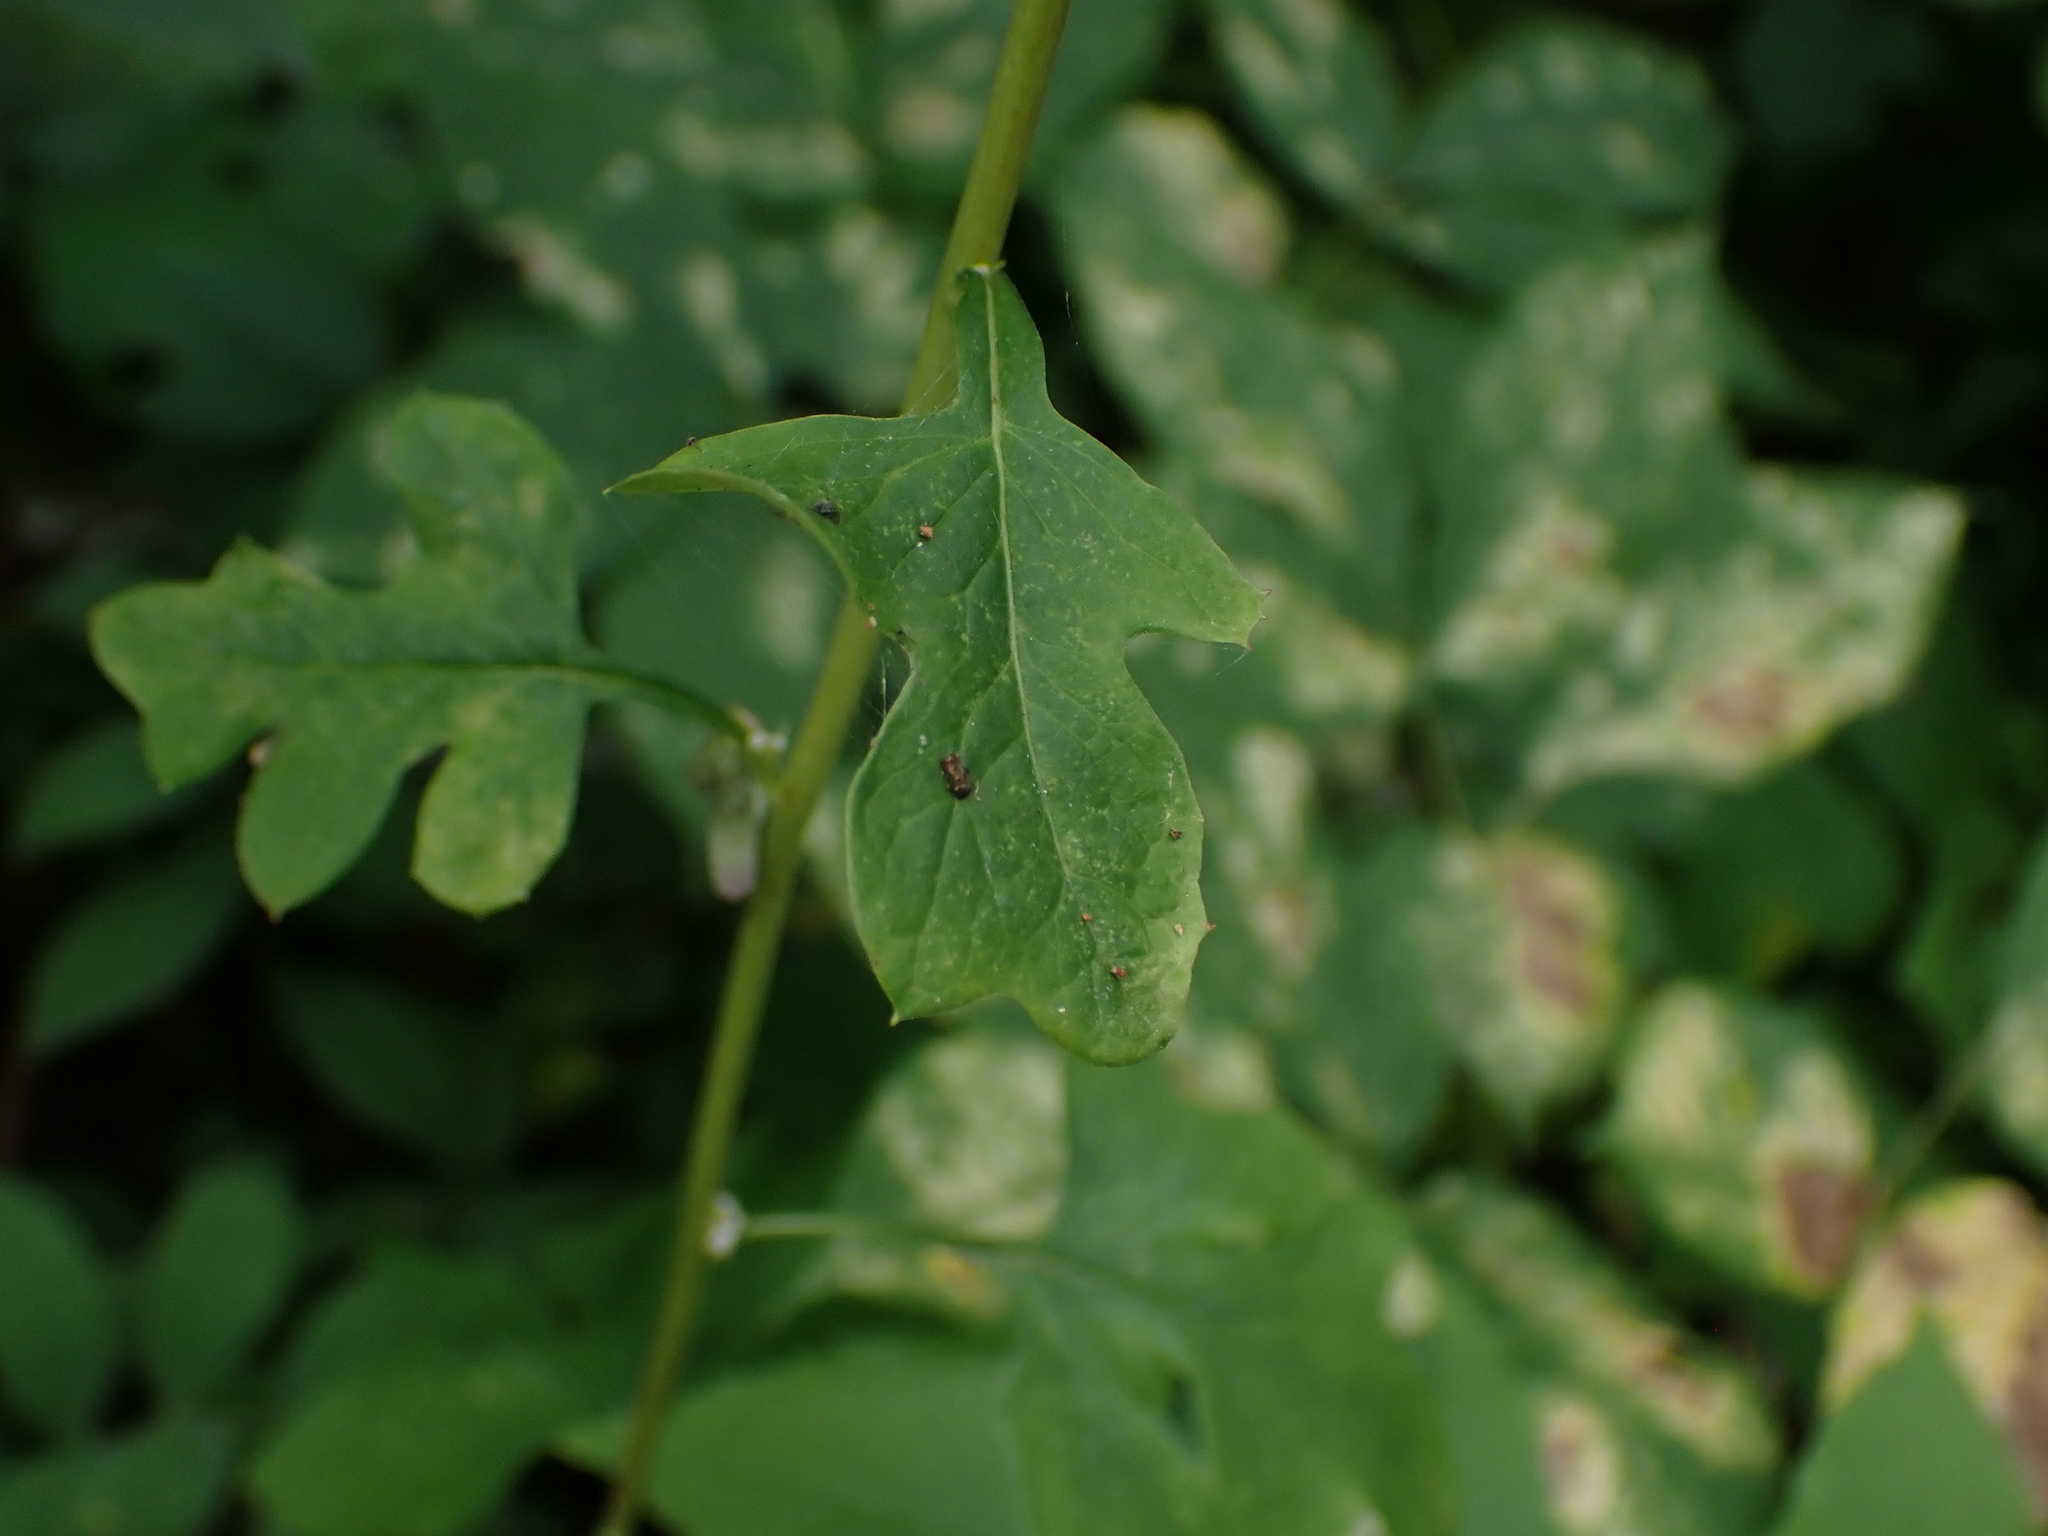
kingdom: Plantae
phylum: Tracheophyta
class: Magnoliopsida
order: Asterales
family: Asteraceae
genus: Nabalus
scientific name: Nabalus albus
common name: White rattlesnakeroot
